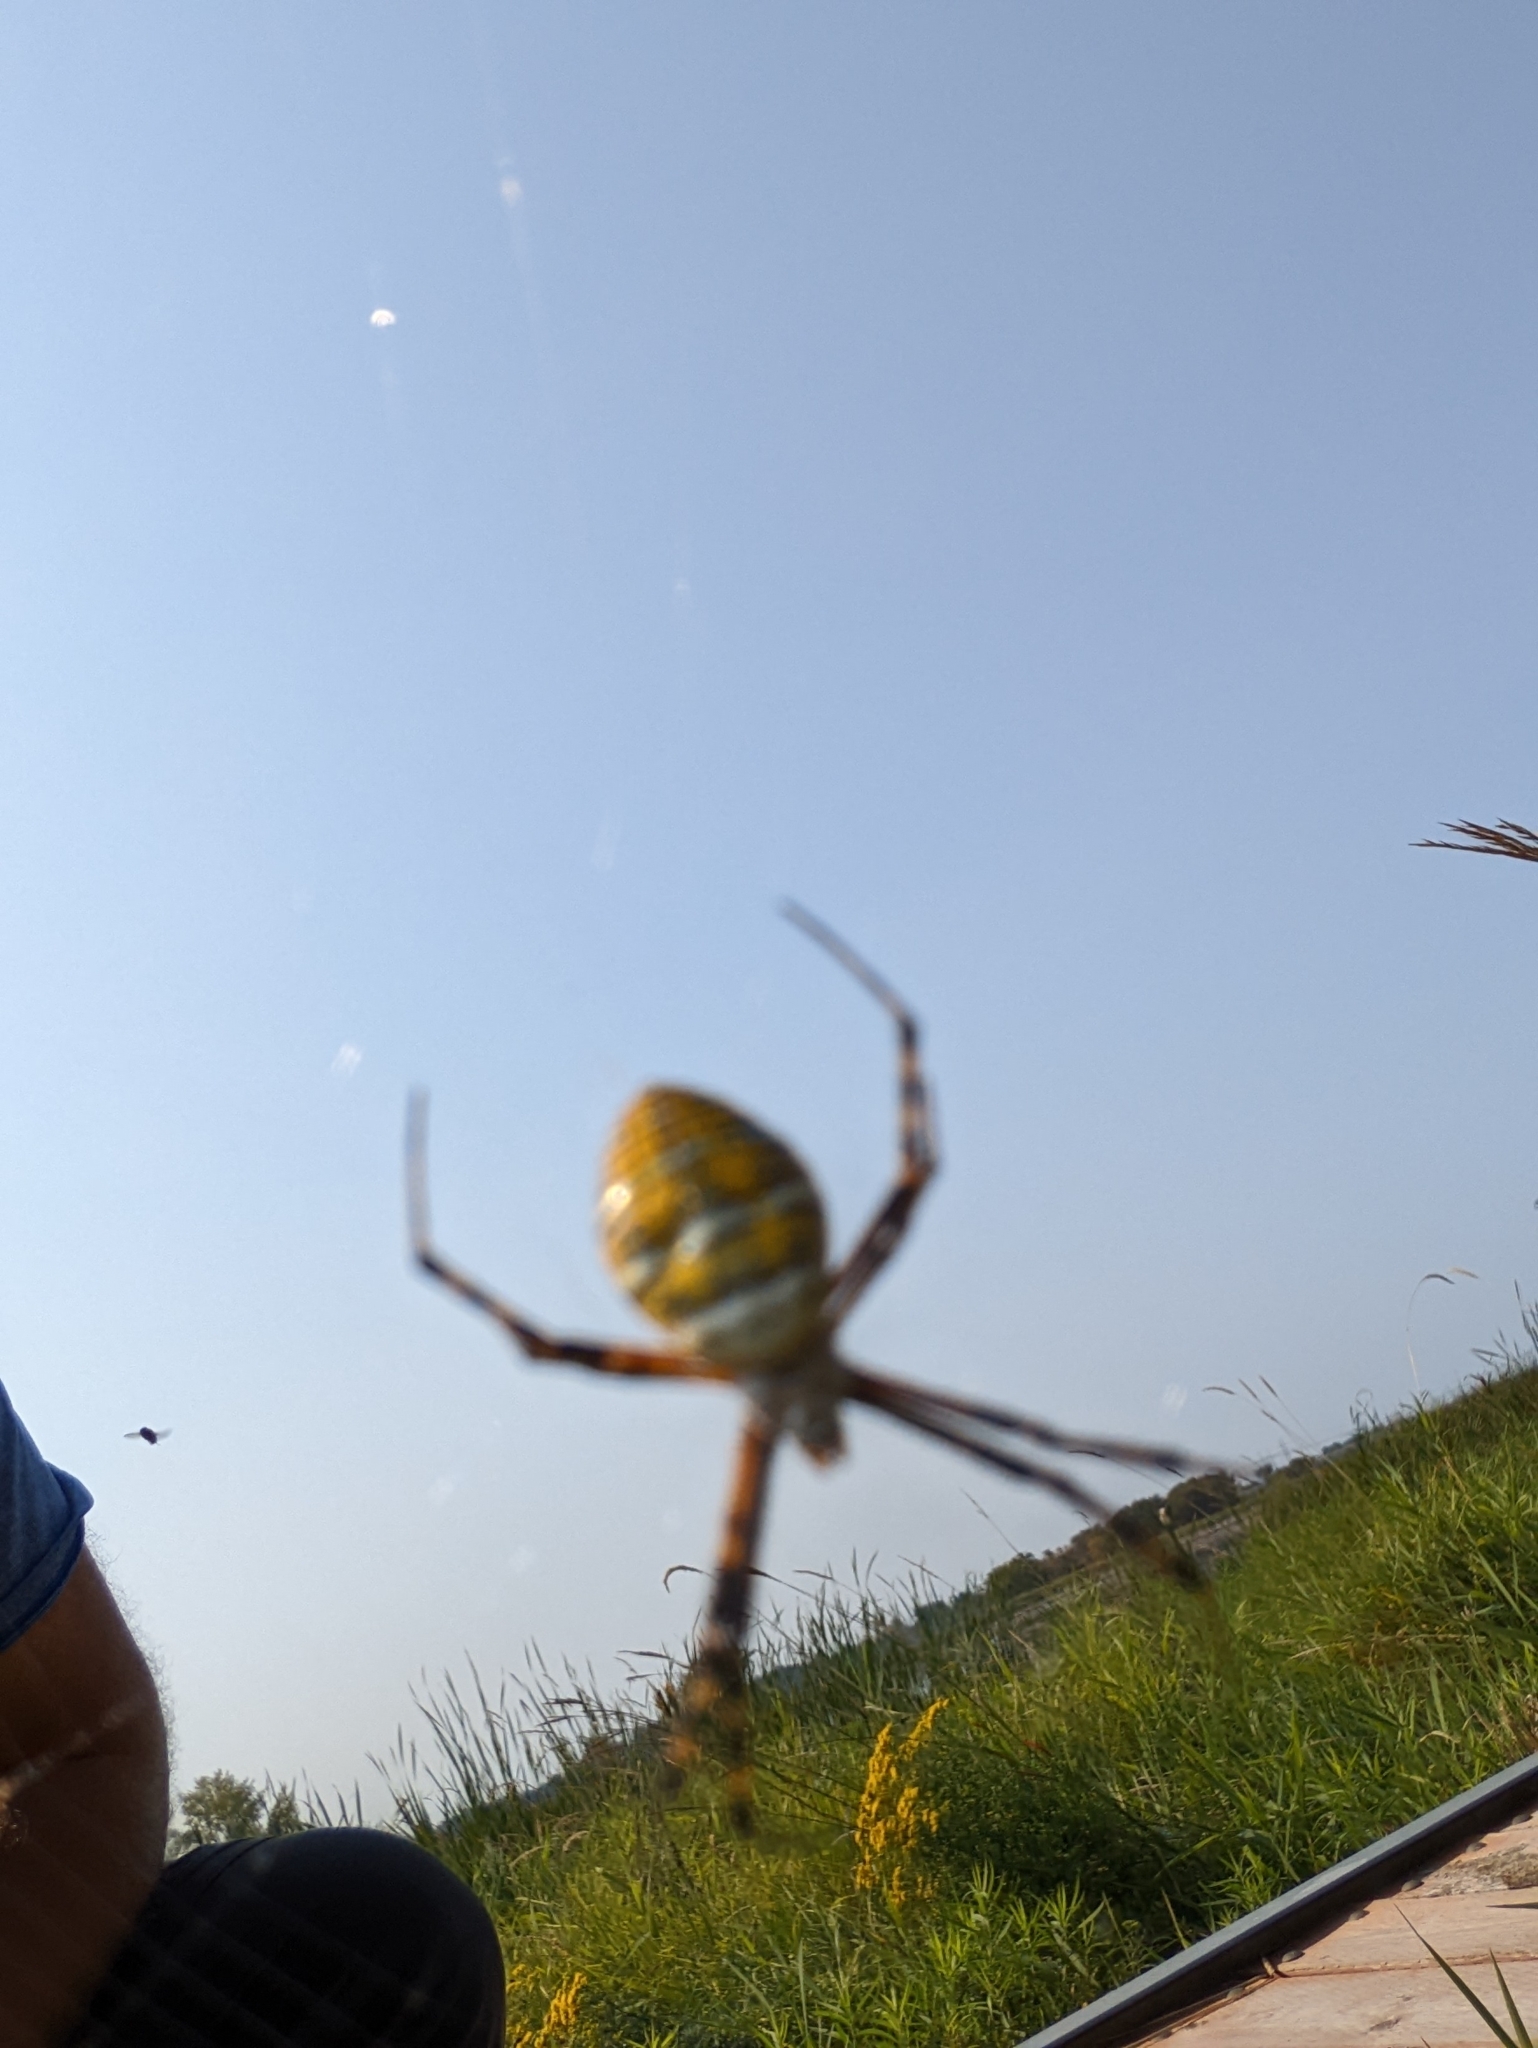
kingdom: Animalia
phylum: Arthropoda
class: Arachnida
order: Araneae
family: Araneidae
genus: Argiope
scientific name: Argiope trifasciata
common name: Banded garden spider
